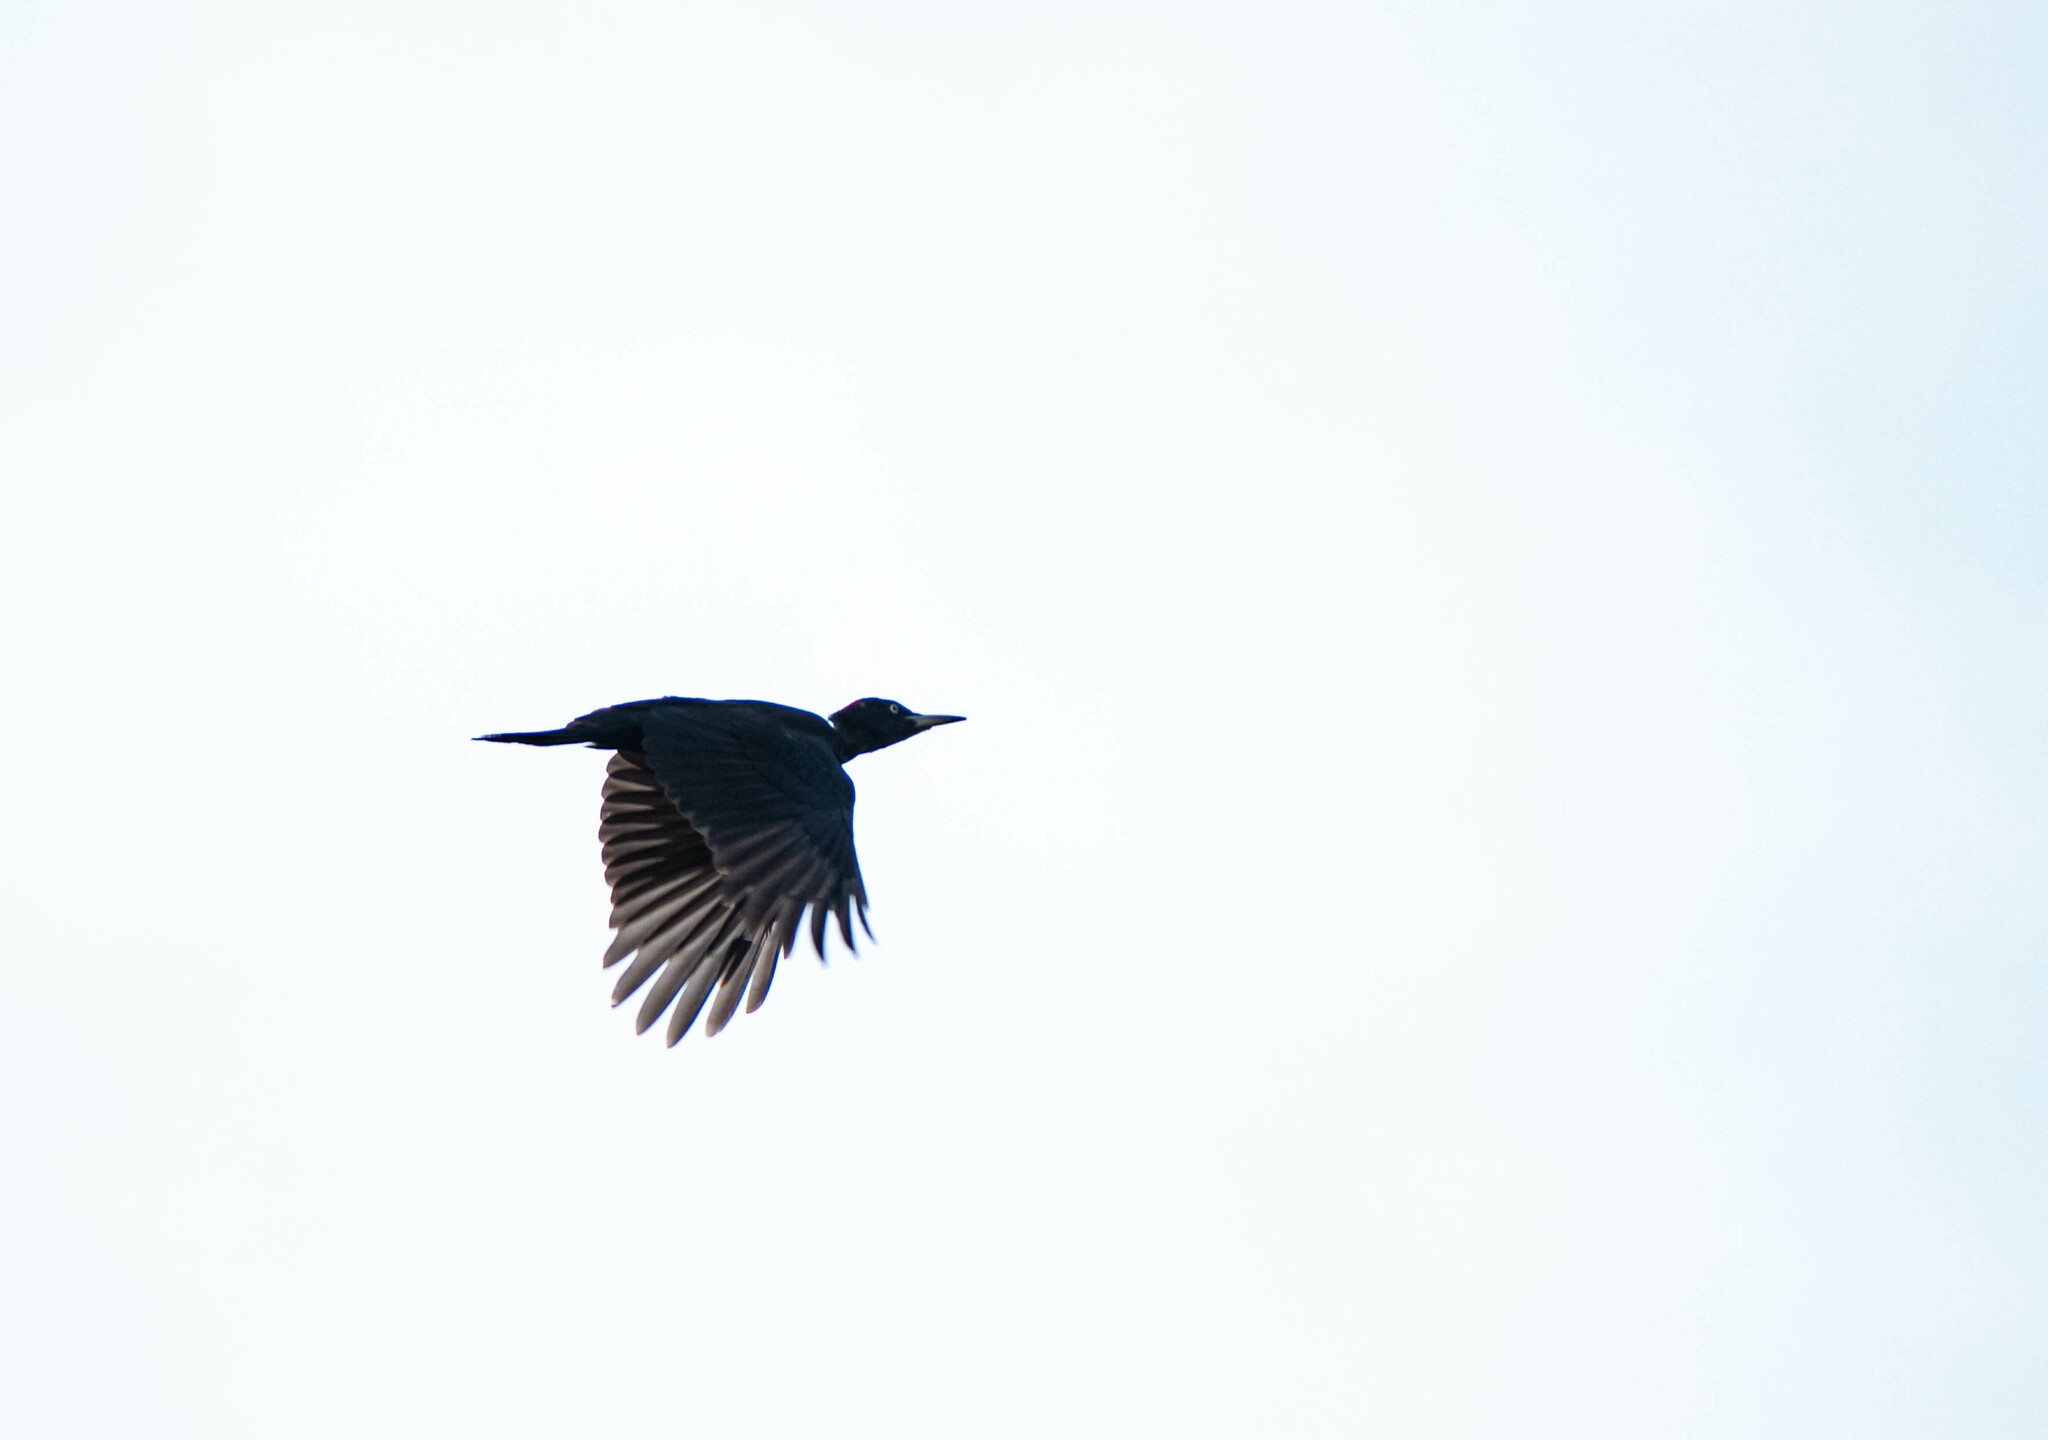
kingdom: Animalia
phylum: Chordata
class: Aves
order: Piciformes
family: Picidae
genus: Dryocopus
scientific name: Dryocopus martius
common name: Black woodpecker
